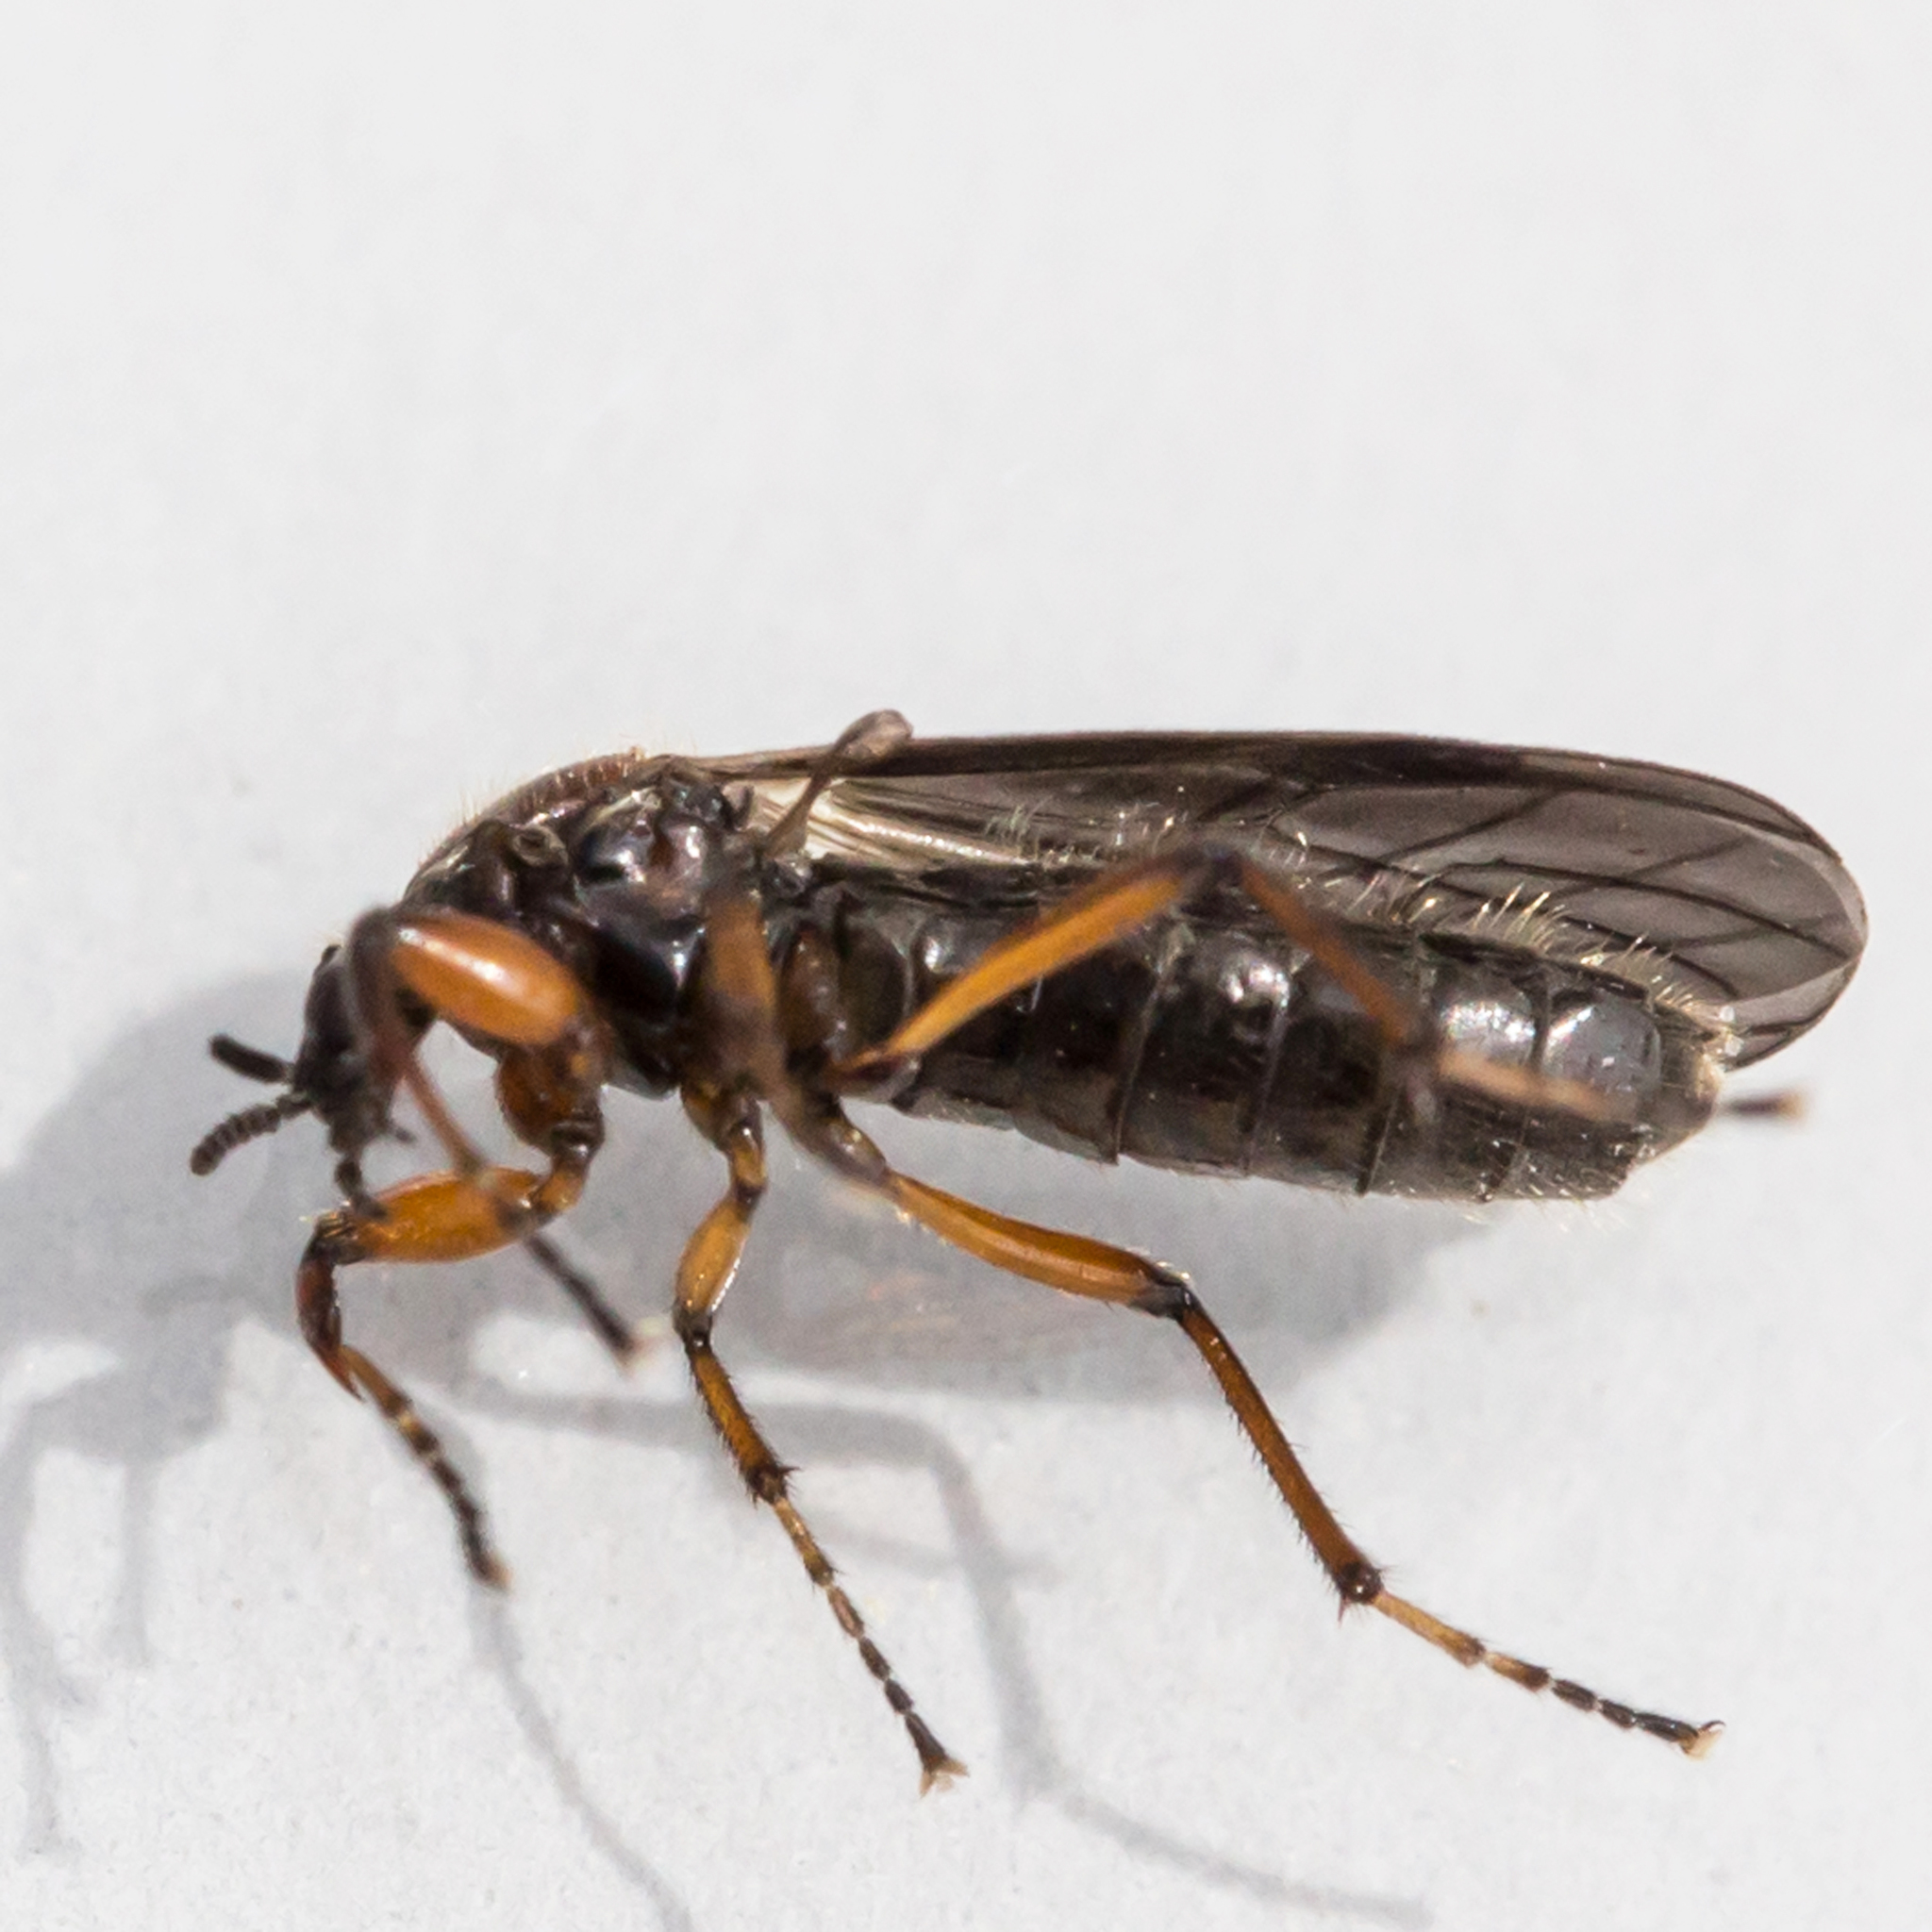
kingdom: Animalia
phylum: Arthropoda
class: Insecta
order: Diptera
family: Bibionidae
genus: Bibio
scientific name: Bibio articulatus
